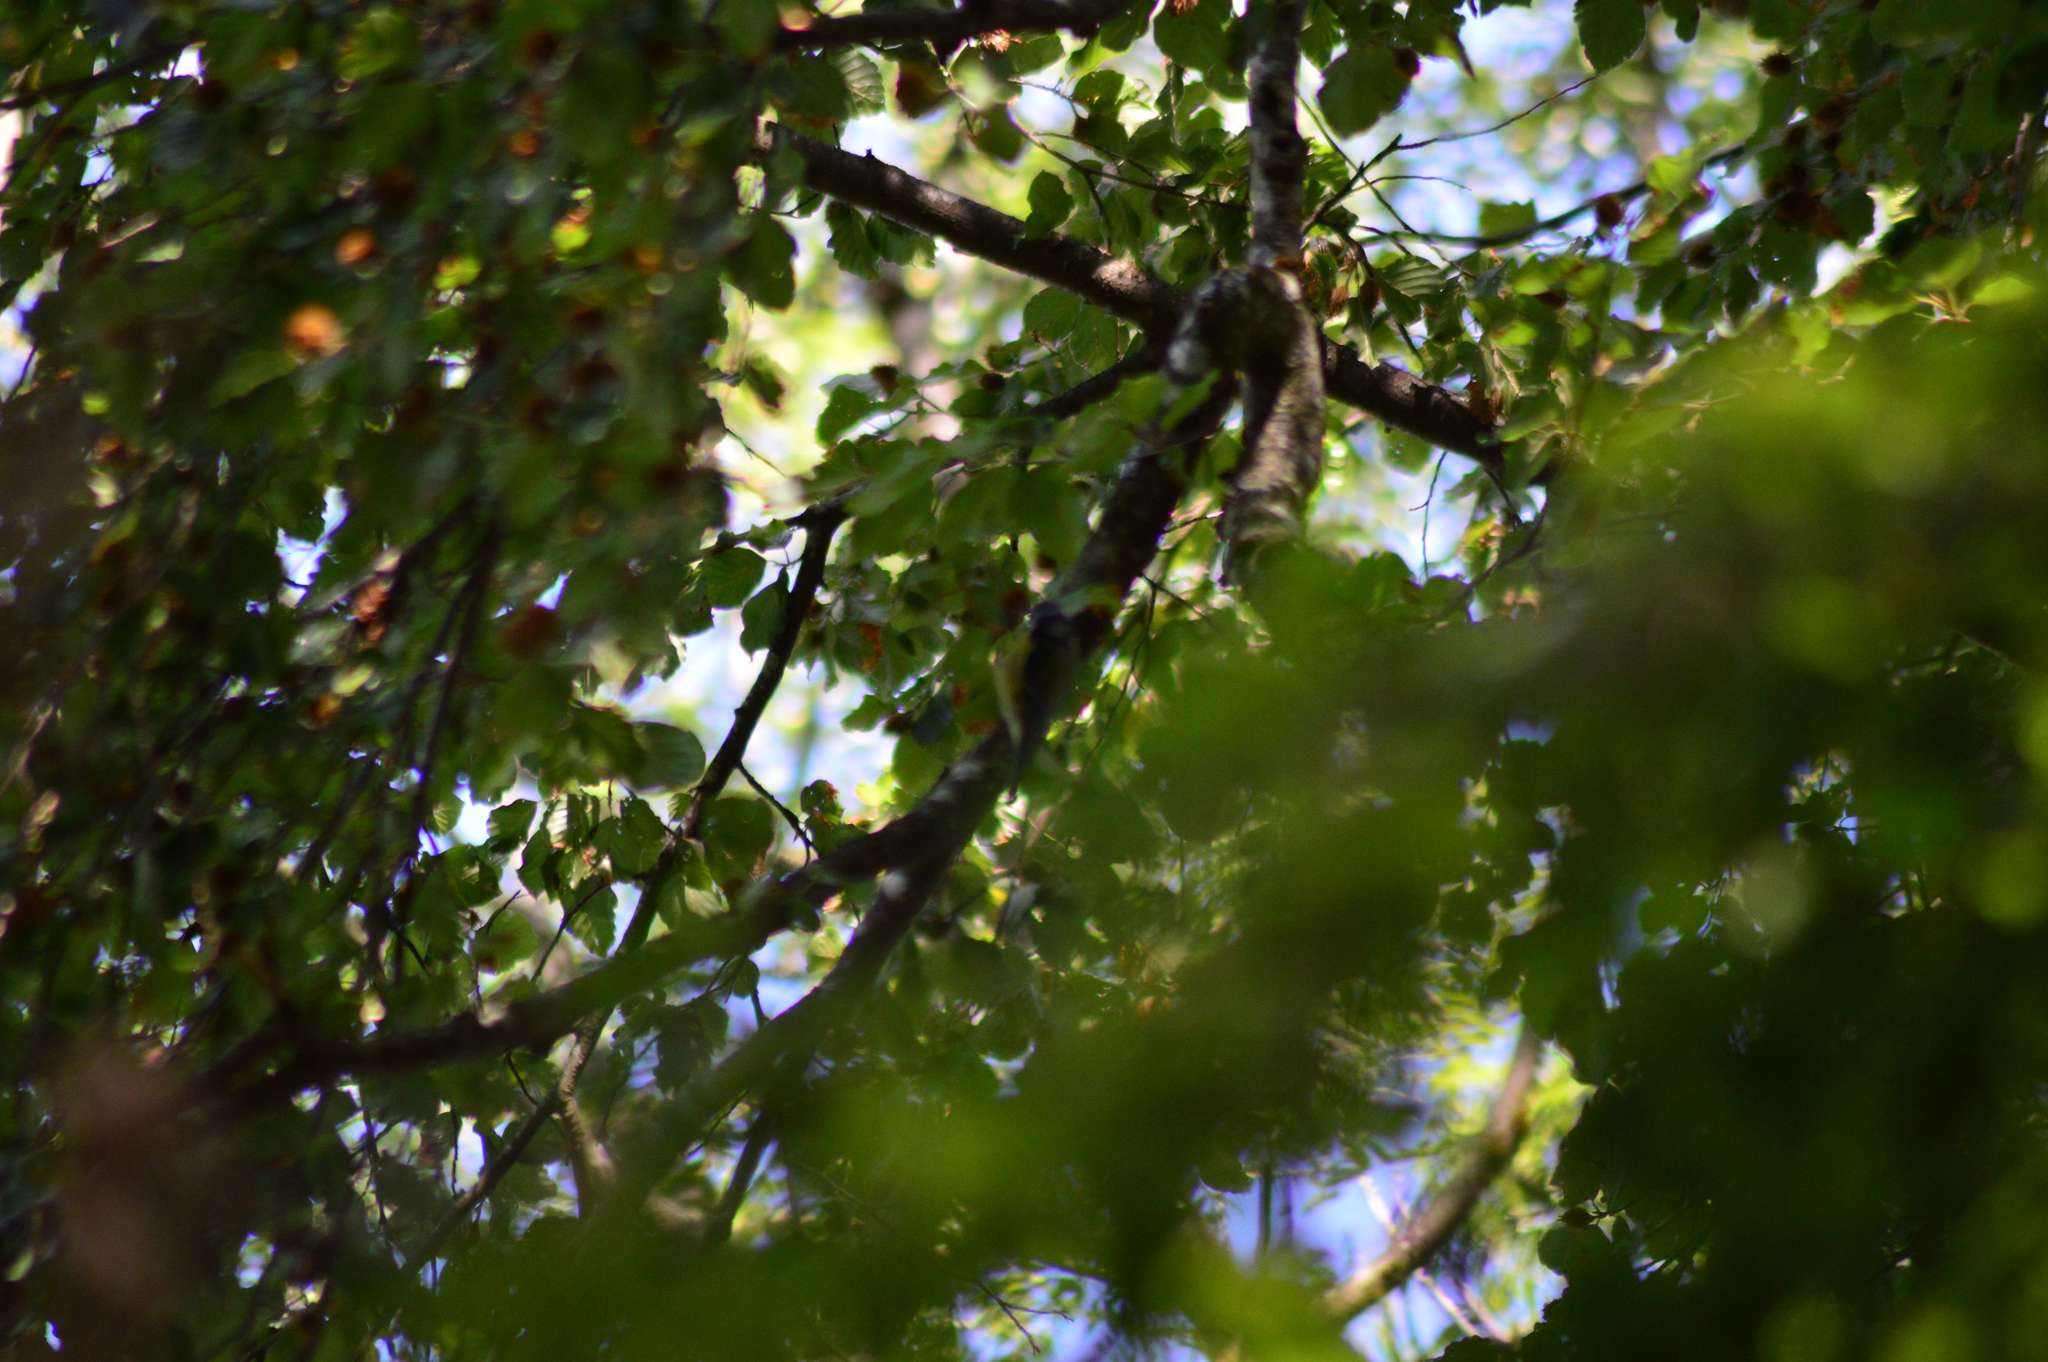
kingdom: Animalia
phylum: Chordata
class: Aves
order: Passeriformes
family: Paridae
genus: Cyanistes
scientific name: Cyanistes caeruleus
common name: Eurasian blue tit
